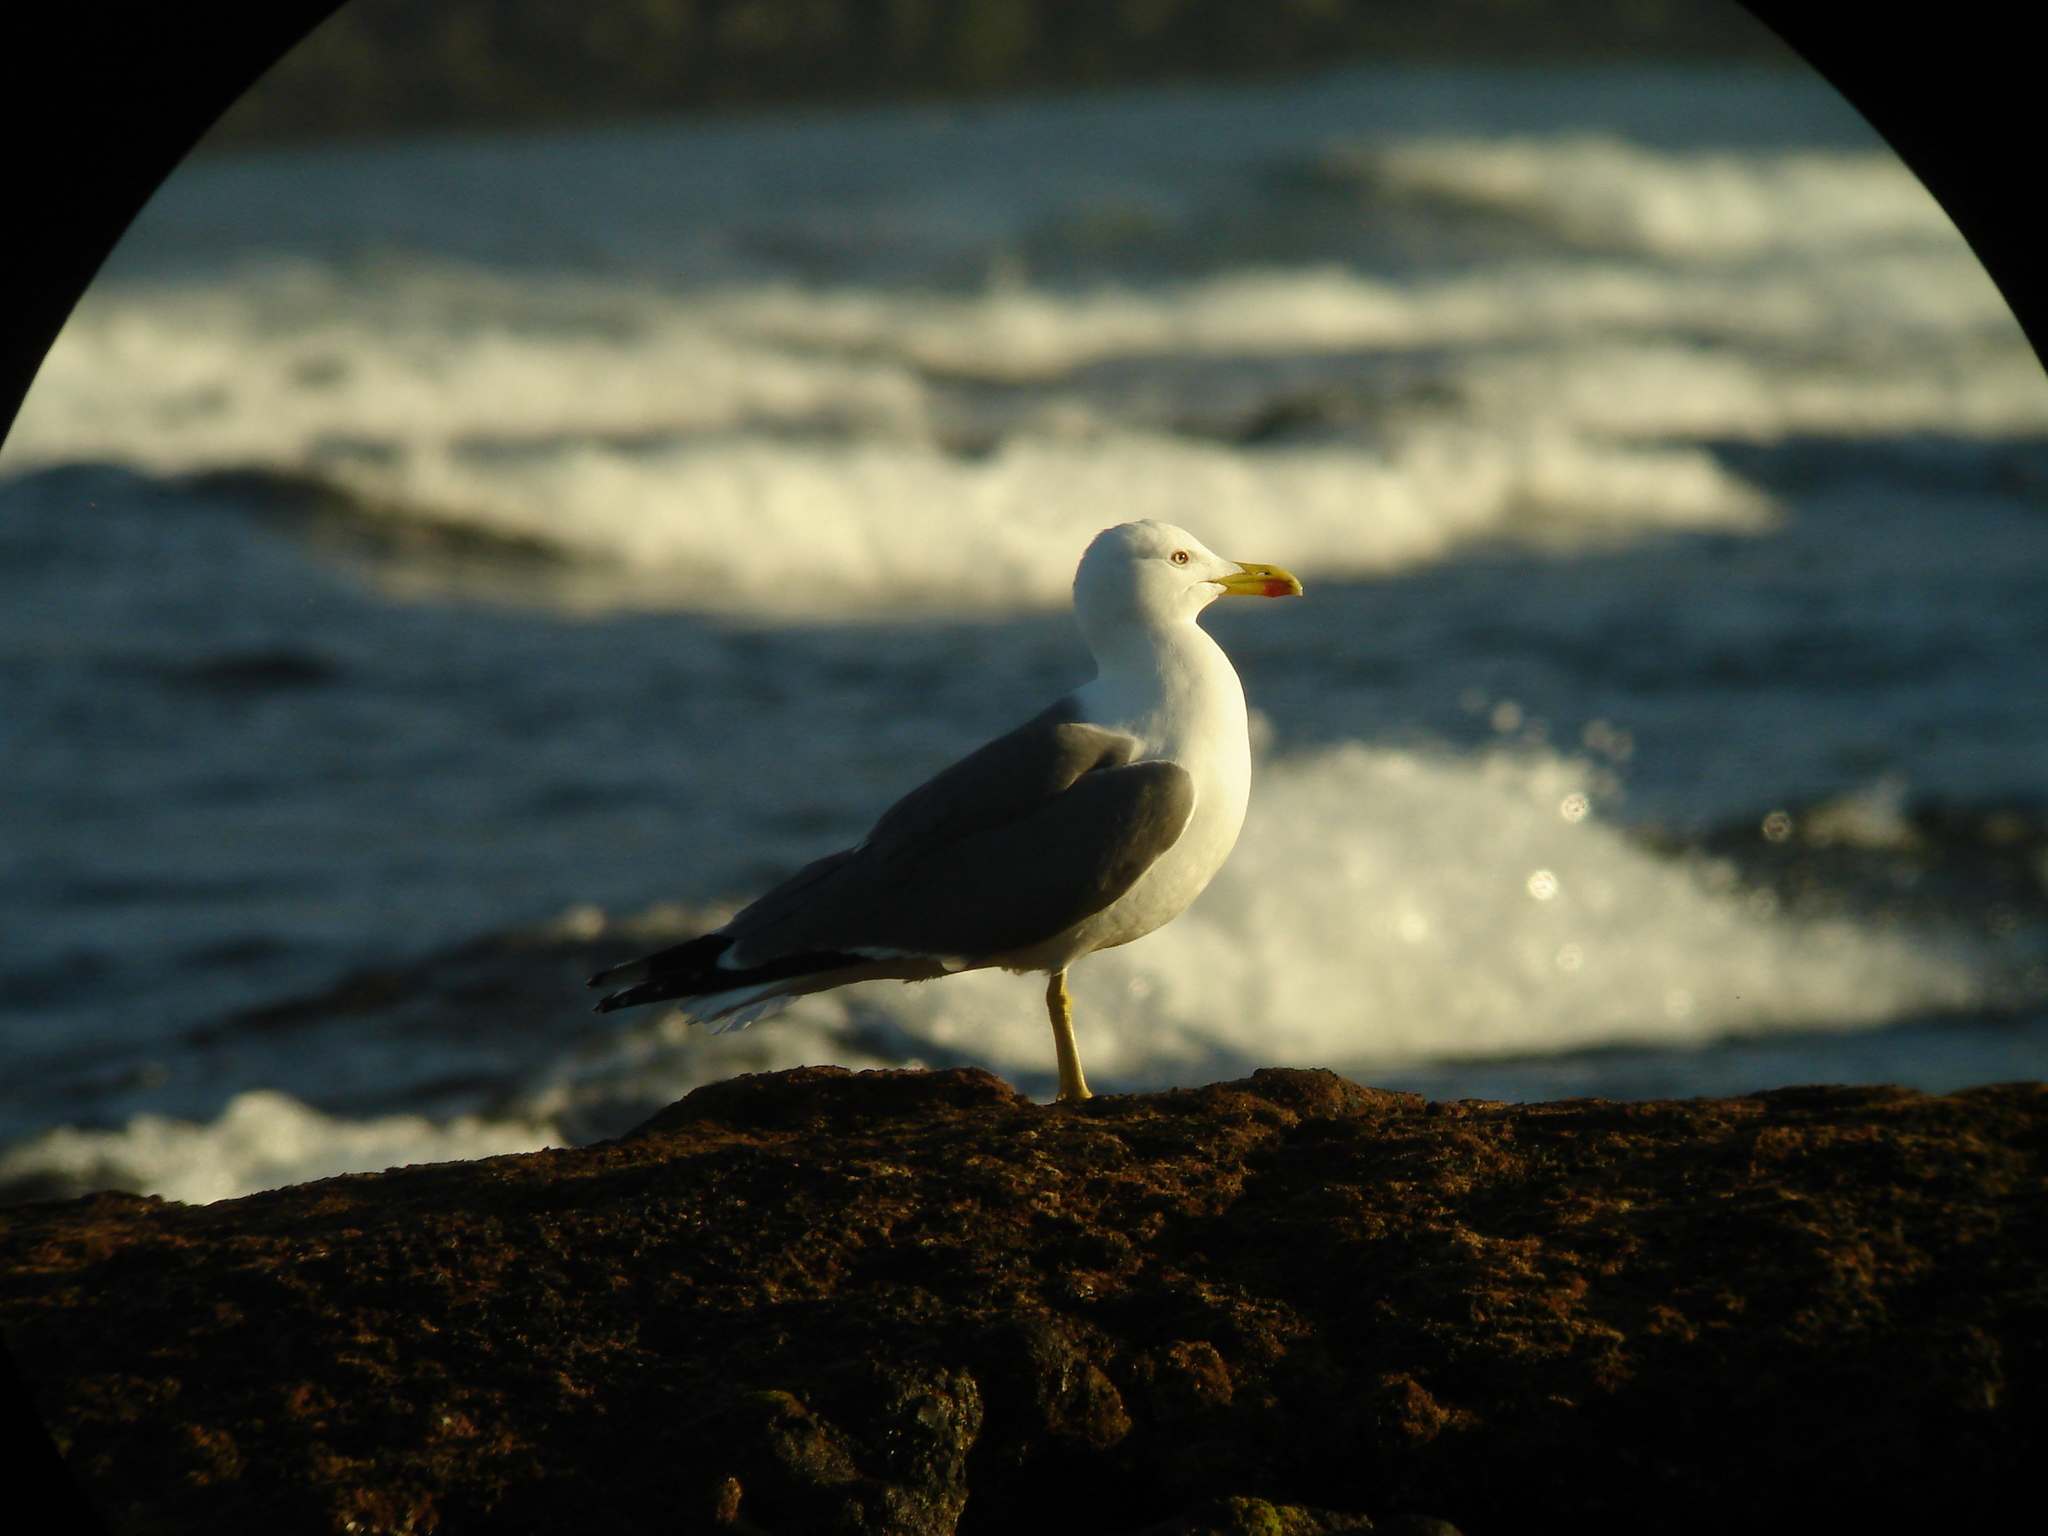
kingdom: Animalia
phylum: Chordata
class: Aves
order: Charadriiformes
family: Laridae
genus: Larus
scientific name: Larus michahellis
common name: Yellow-legged gull
